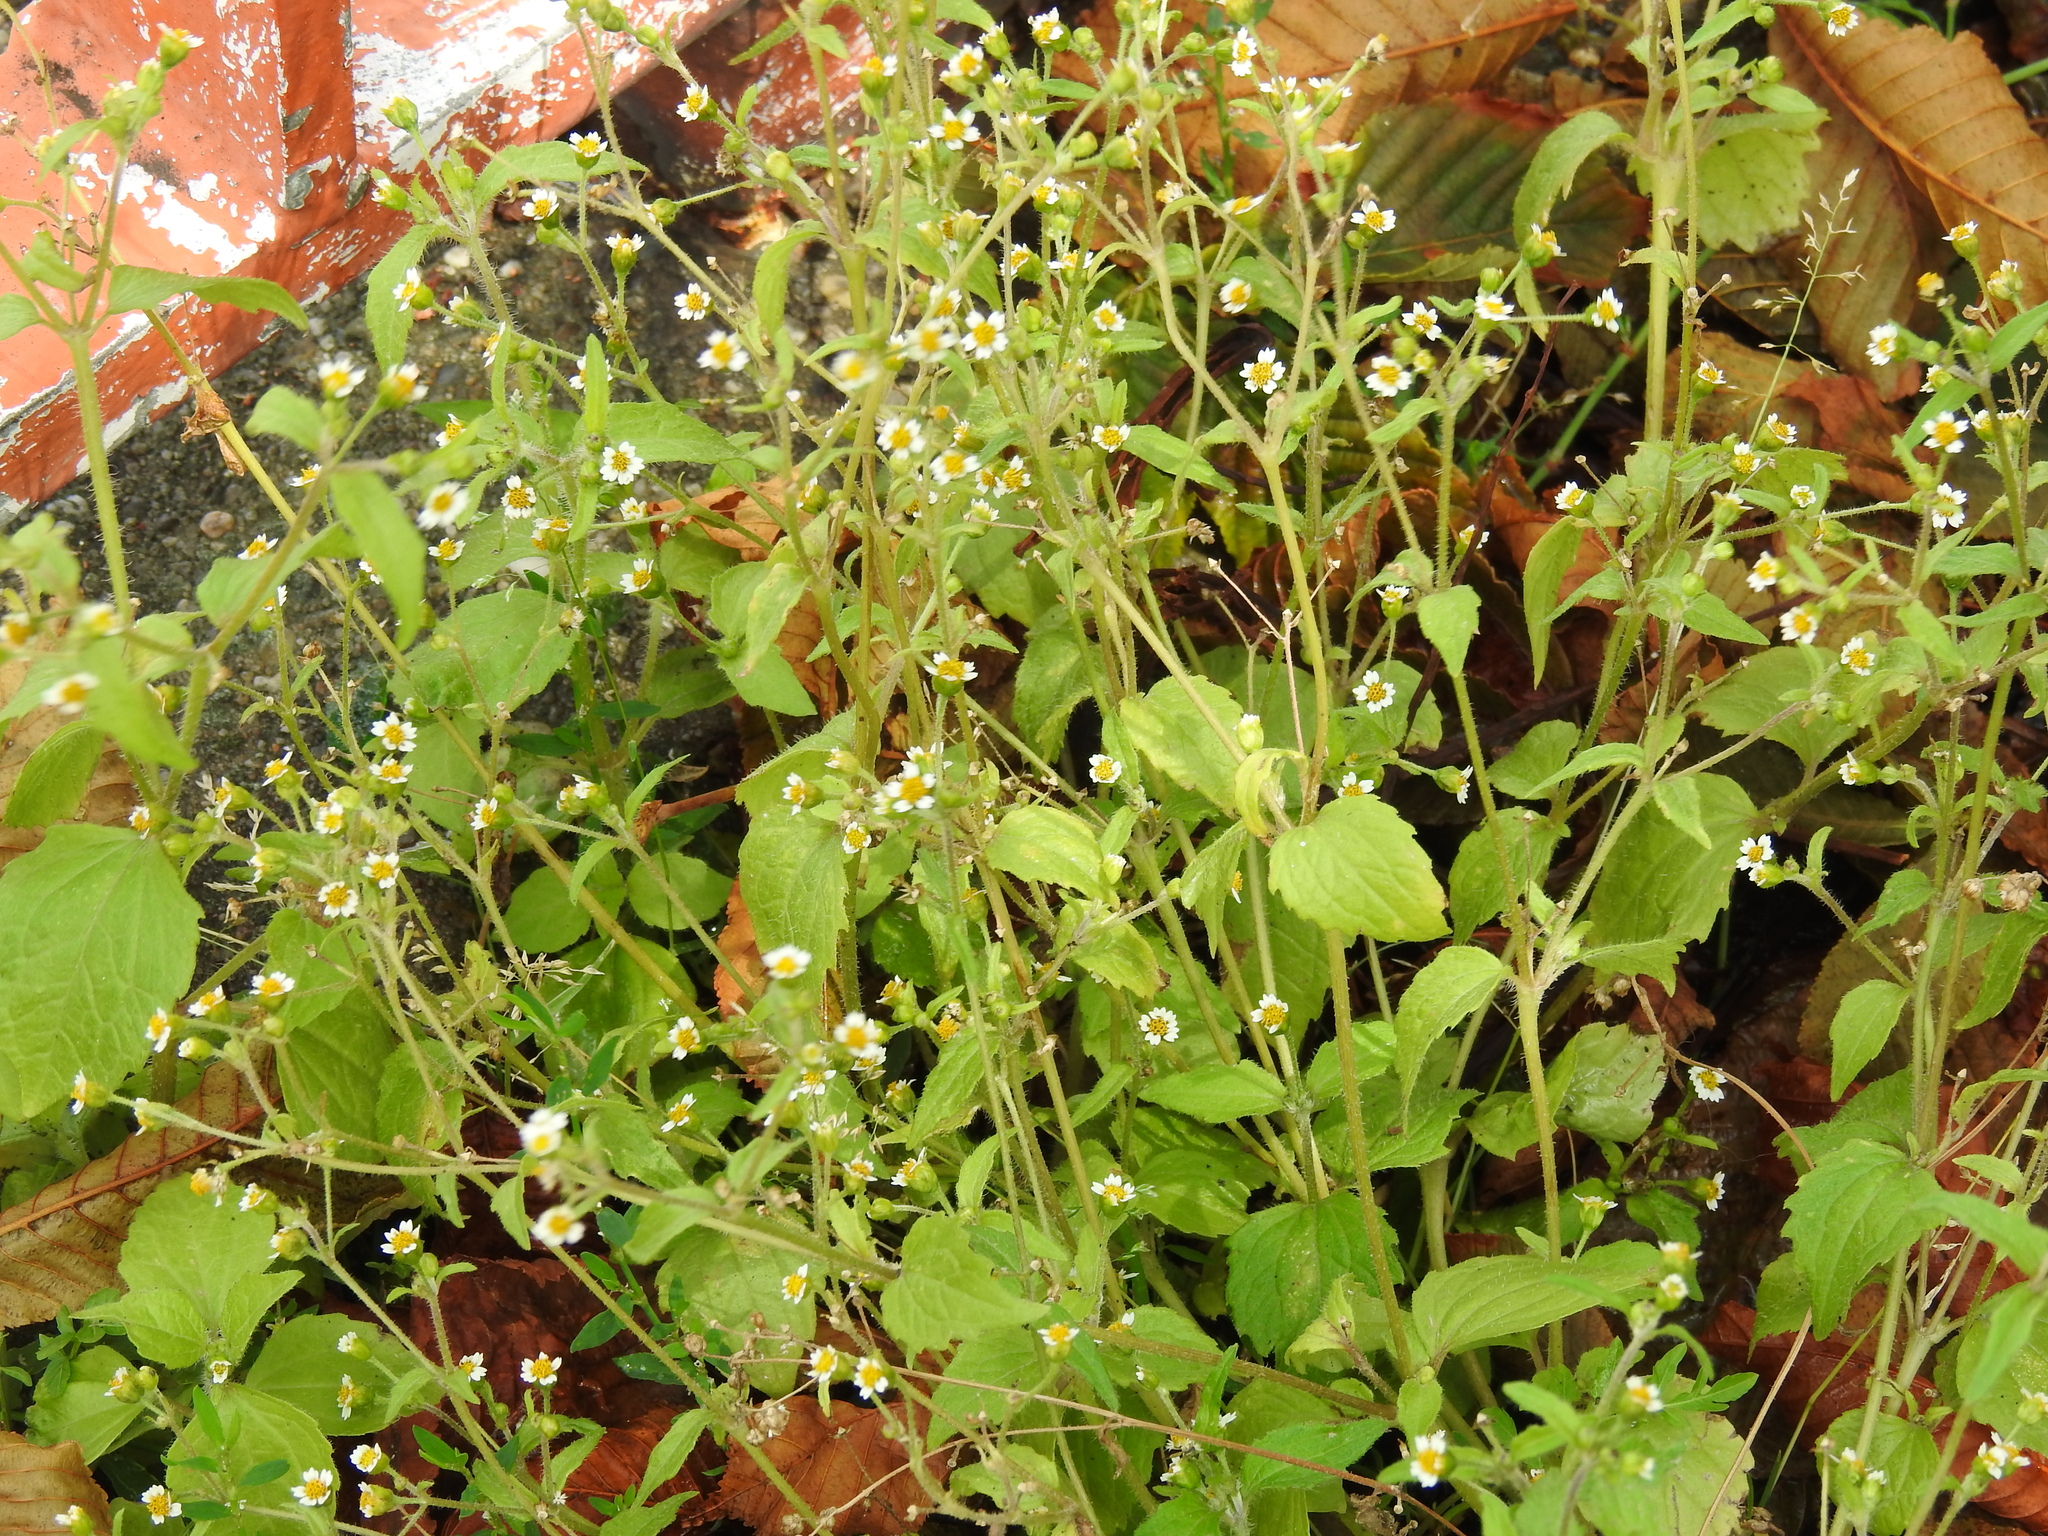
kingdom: Plantae
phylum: Tracheophyta
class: Magnoliopsida
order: Asterales
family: Asteraceae
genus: Galinsoga
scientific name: Galinsoga quadriradiata
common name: Shaggy soldier
